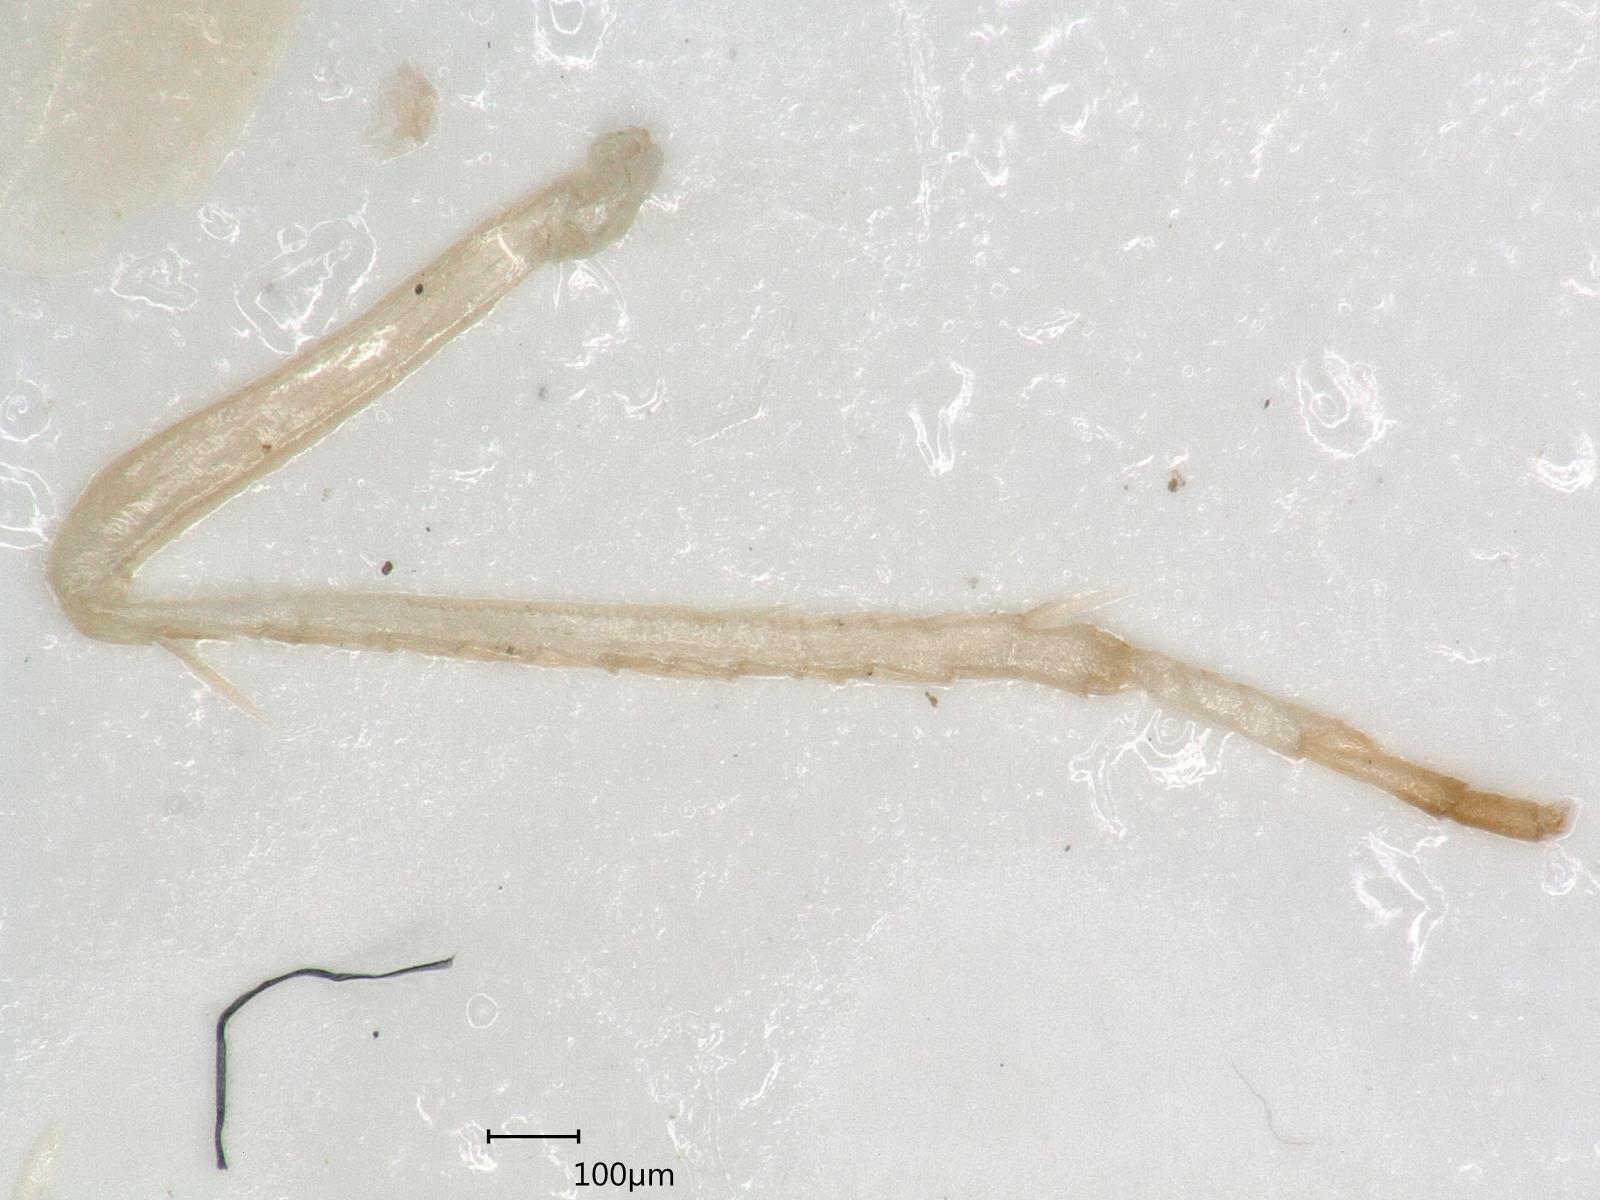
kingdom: Animalia
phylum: Arthropoda
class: Insecta
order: Hemiptera
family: Cicadellidae
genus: Zygina
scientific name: Zygina schneideri
